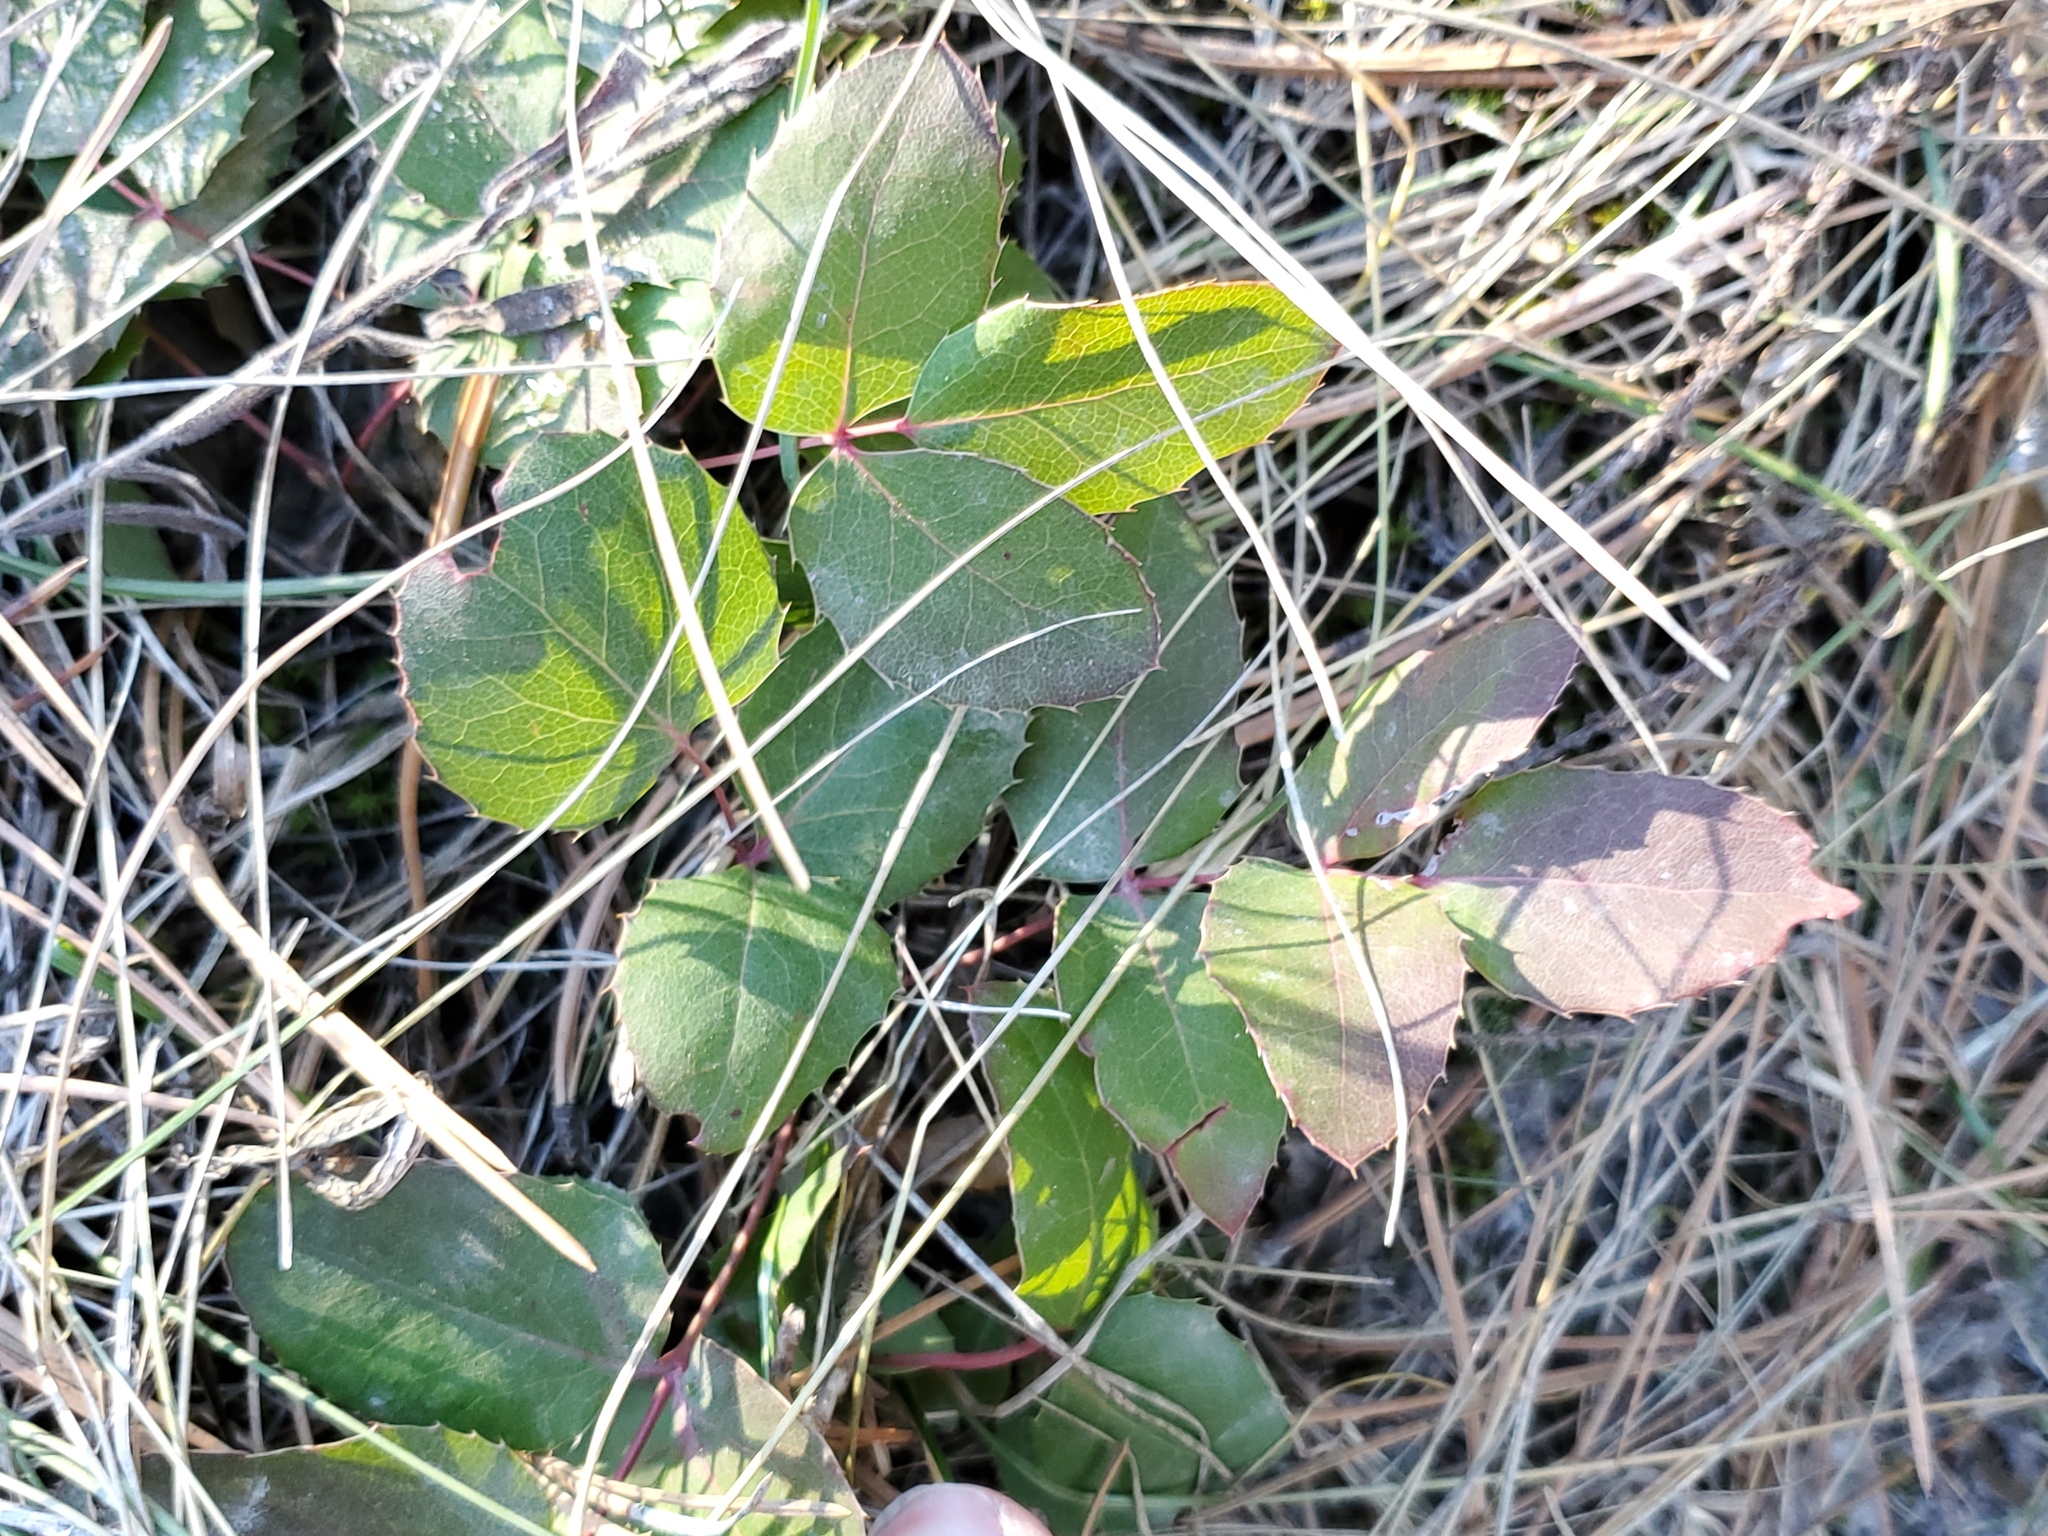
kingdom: Plantae
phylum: Tracheophyta
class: Magnoliopsida
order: Ranunculales
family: Berberidaceae
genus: Mahonia
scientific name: Mahonia repens
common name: Creeping oregon-grape
